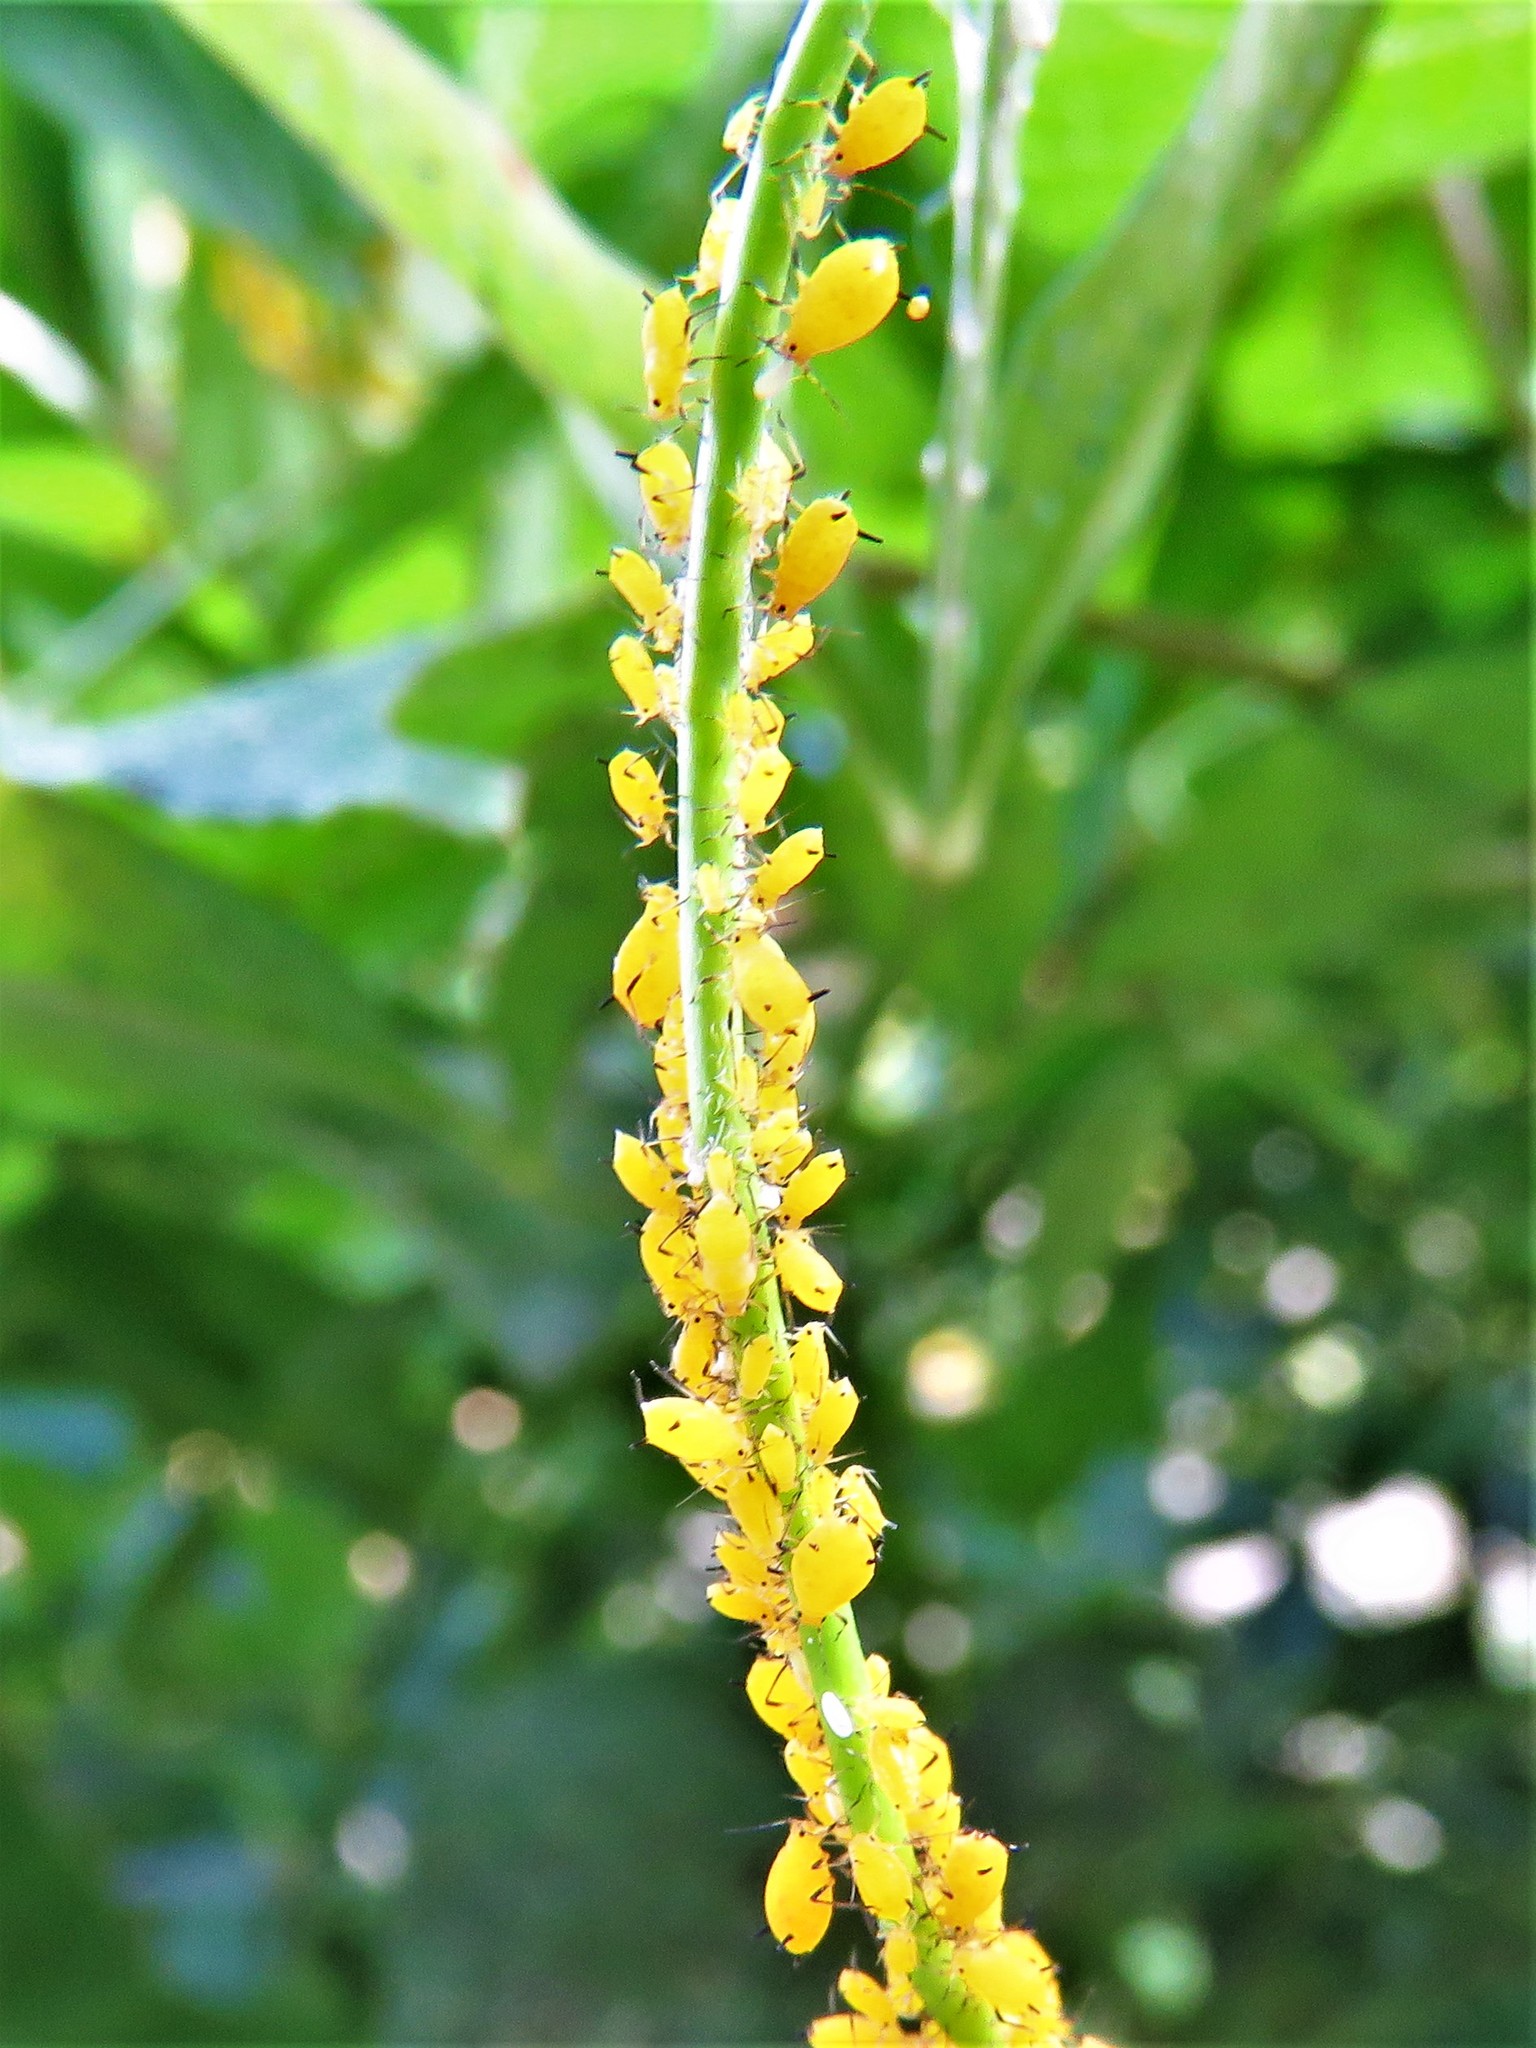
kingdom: Animalia
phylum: Arthropoda
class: Insecta
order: Hemiptera
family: Aphididae
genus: Aphis
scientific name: Aphis nerii
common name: Oleander aphid
